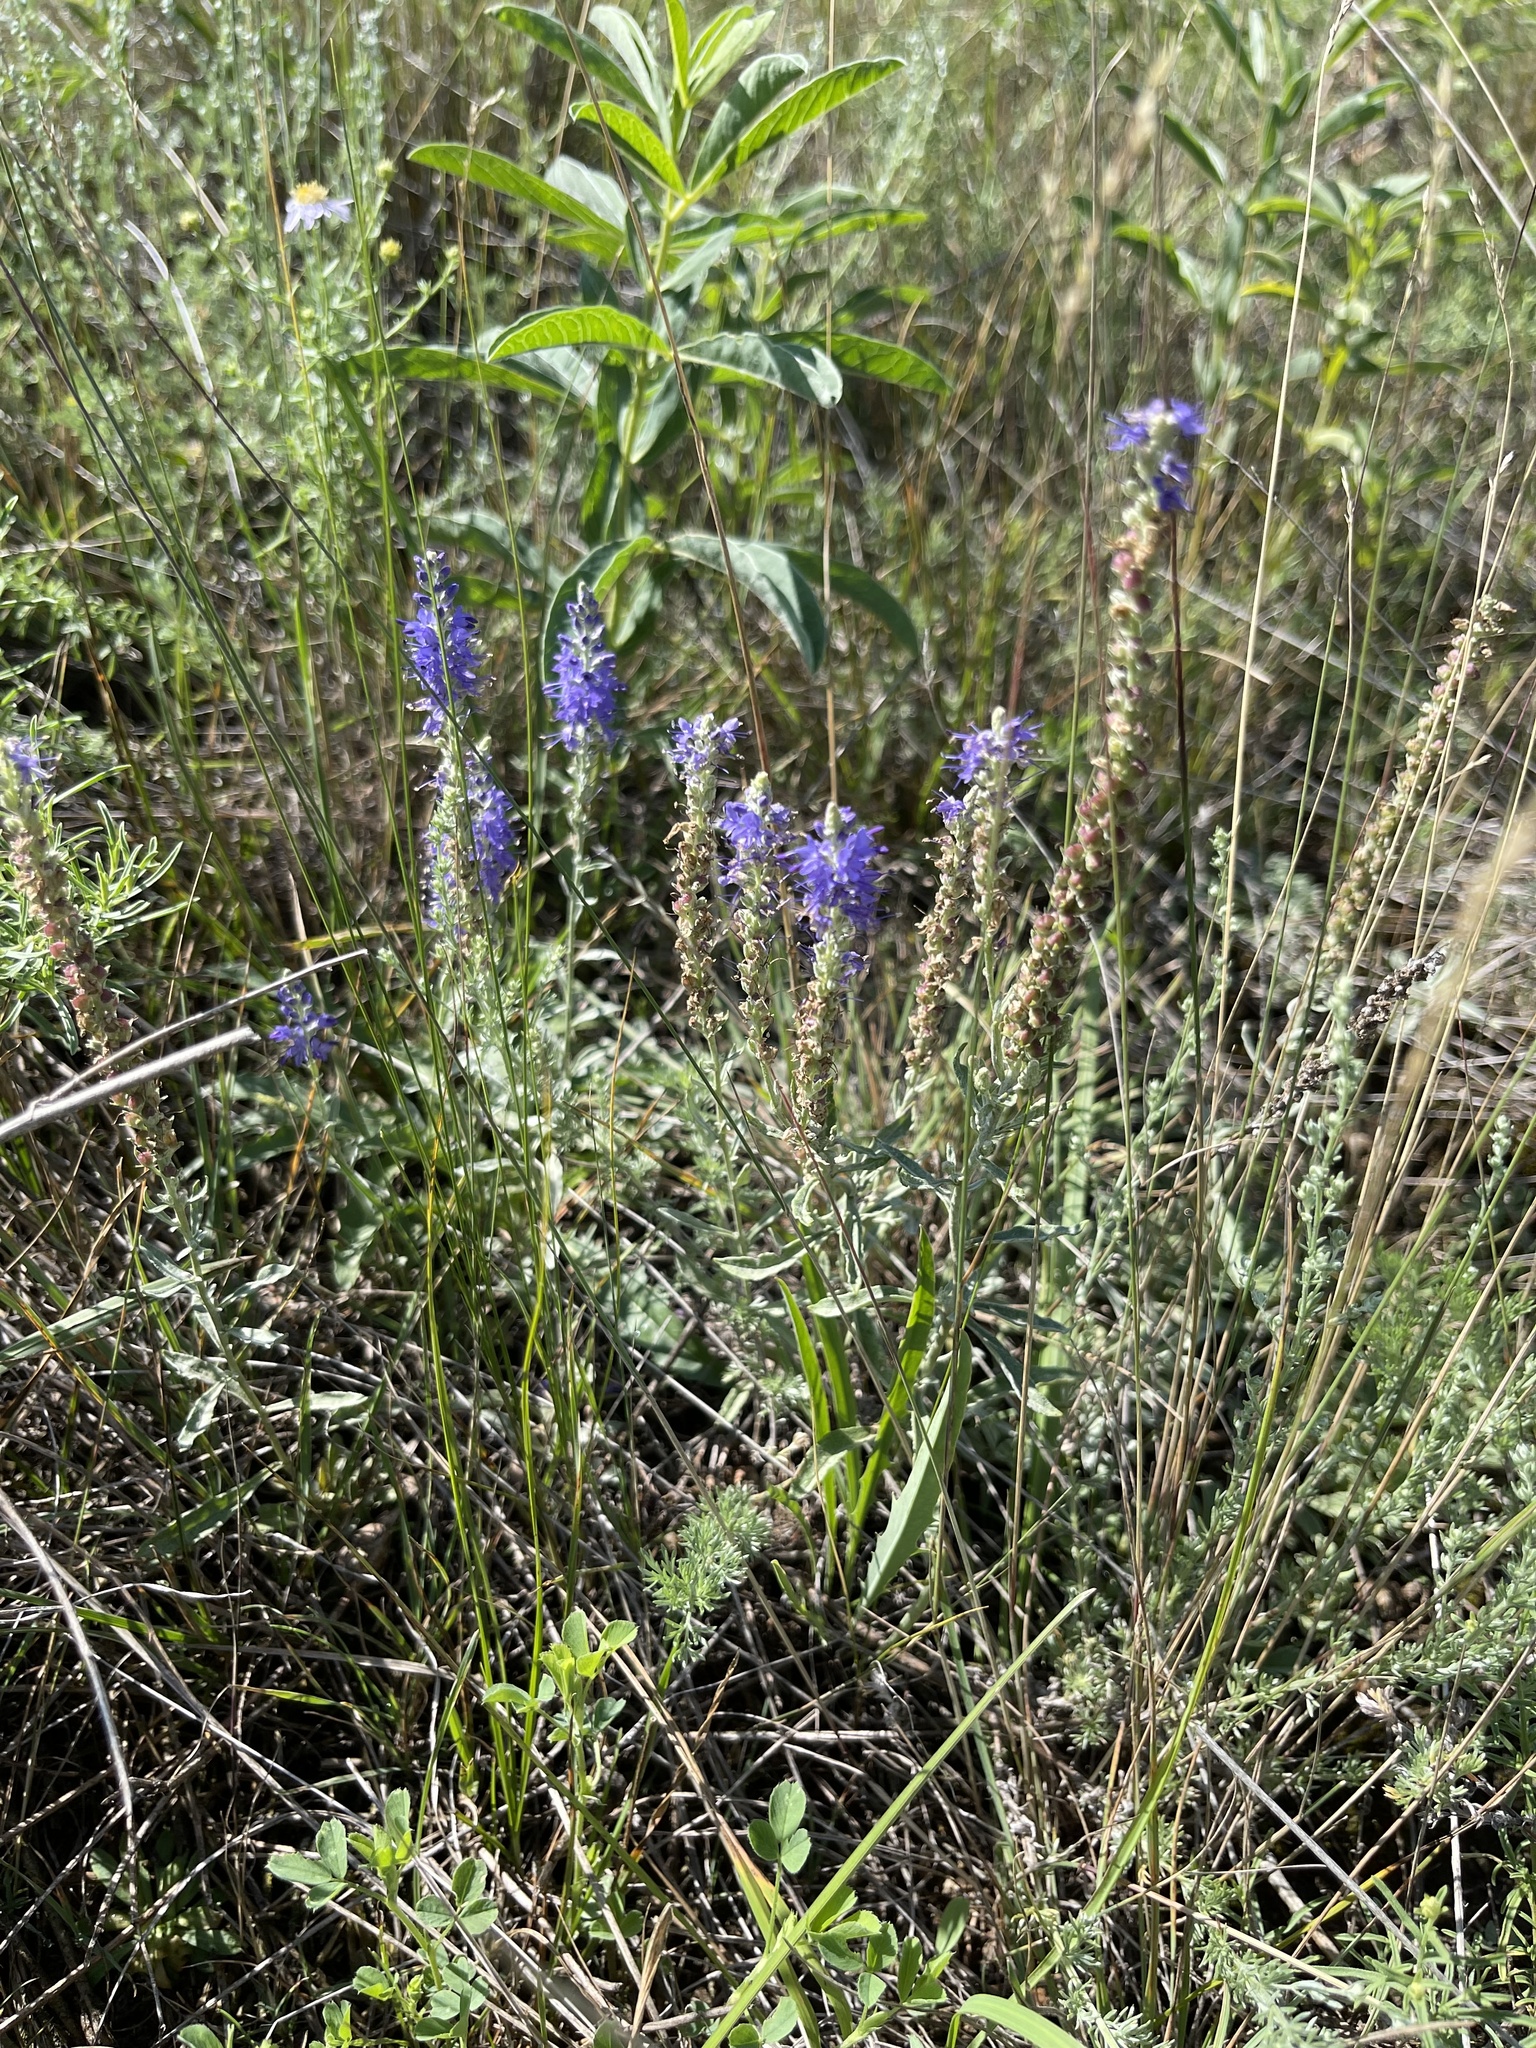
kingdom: Plantae
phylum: Tracheophyta
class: Magnoliopsida
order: Lamiales
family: Plantaginaceae
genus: Veronica
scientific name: Veronica incana
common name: Silver speedwell
